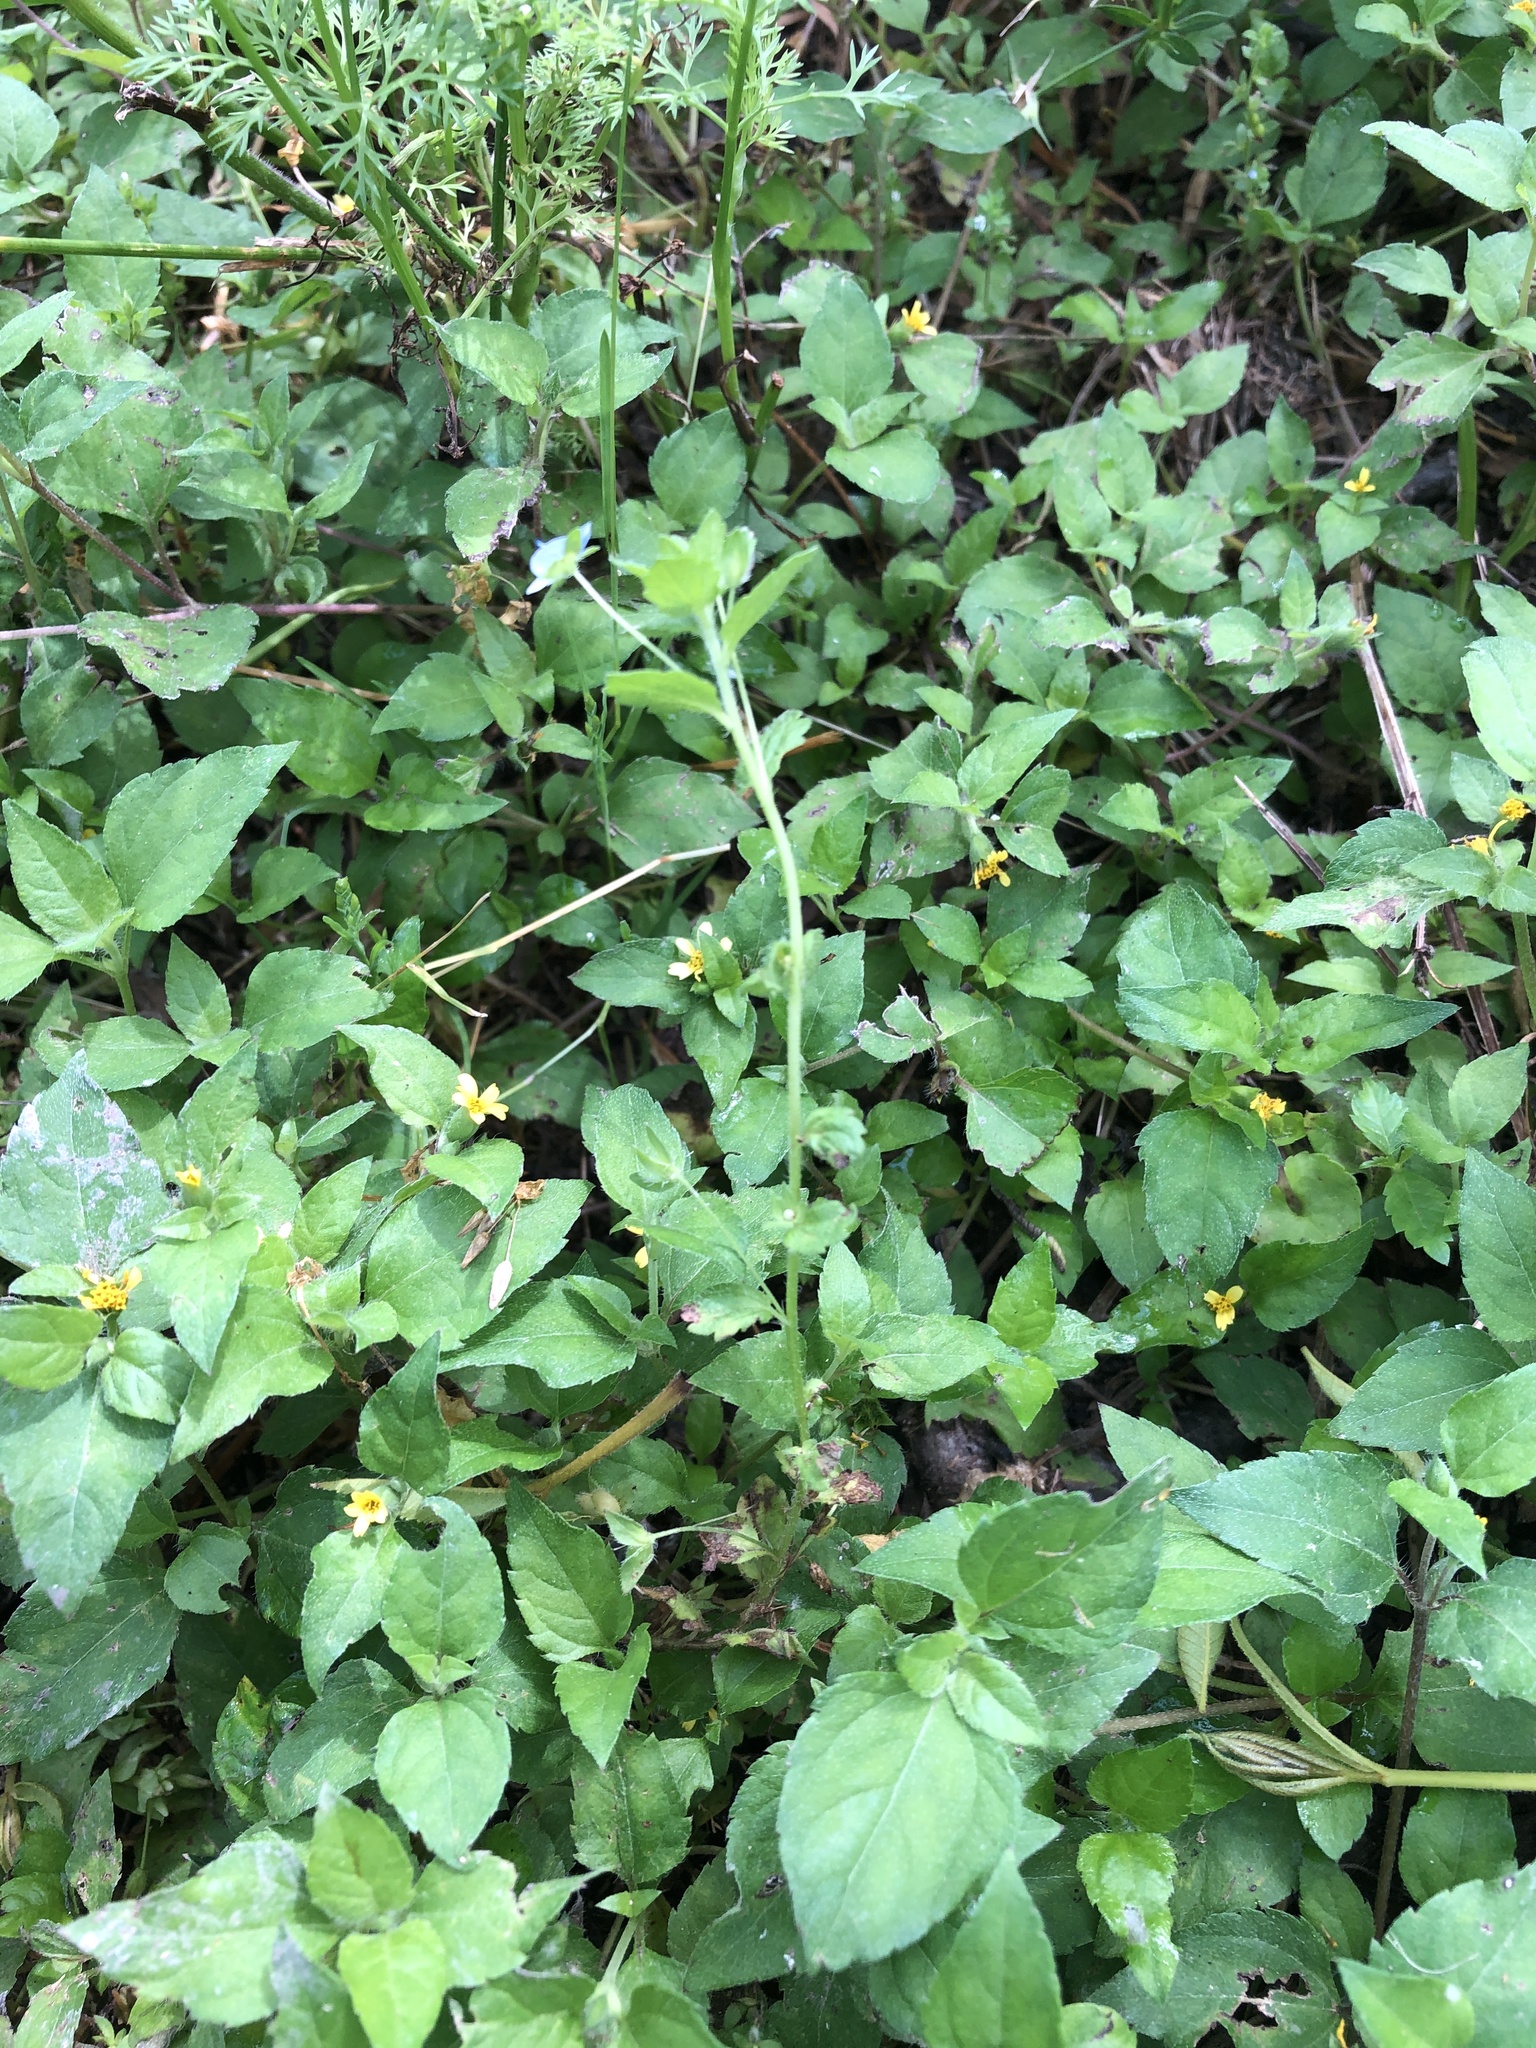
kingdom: Plantae
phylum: Tracheophyta
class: Magnoliopsida
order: Lamiales
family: Plantaginaceae
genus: Veronica
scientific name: Veronica persica
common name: Common field-speedwell
